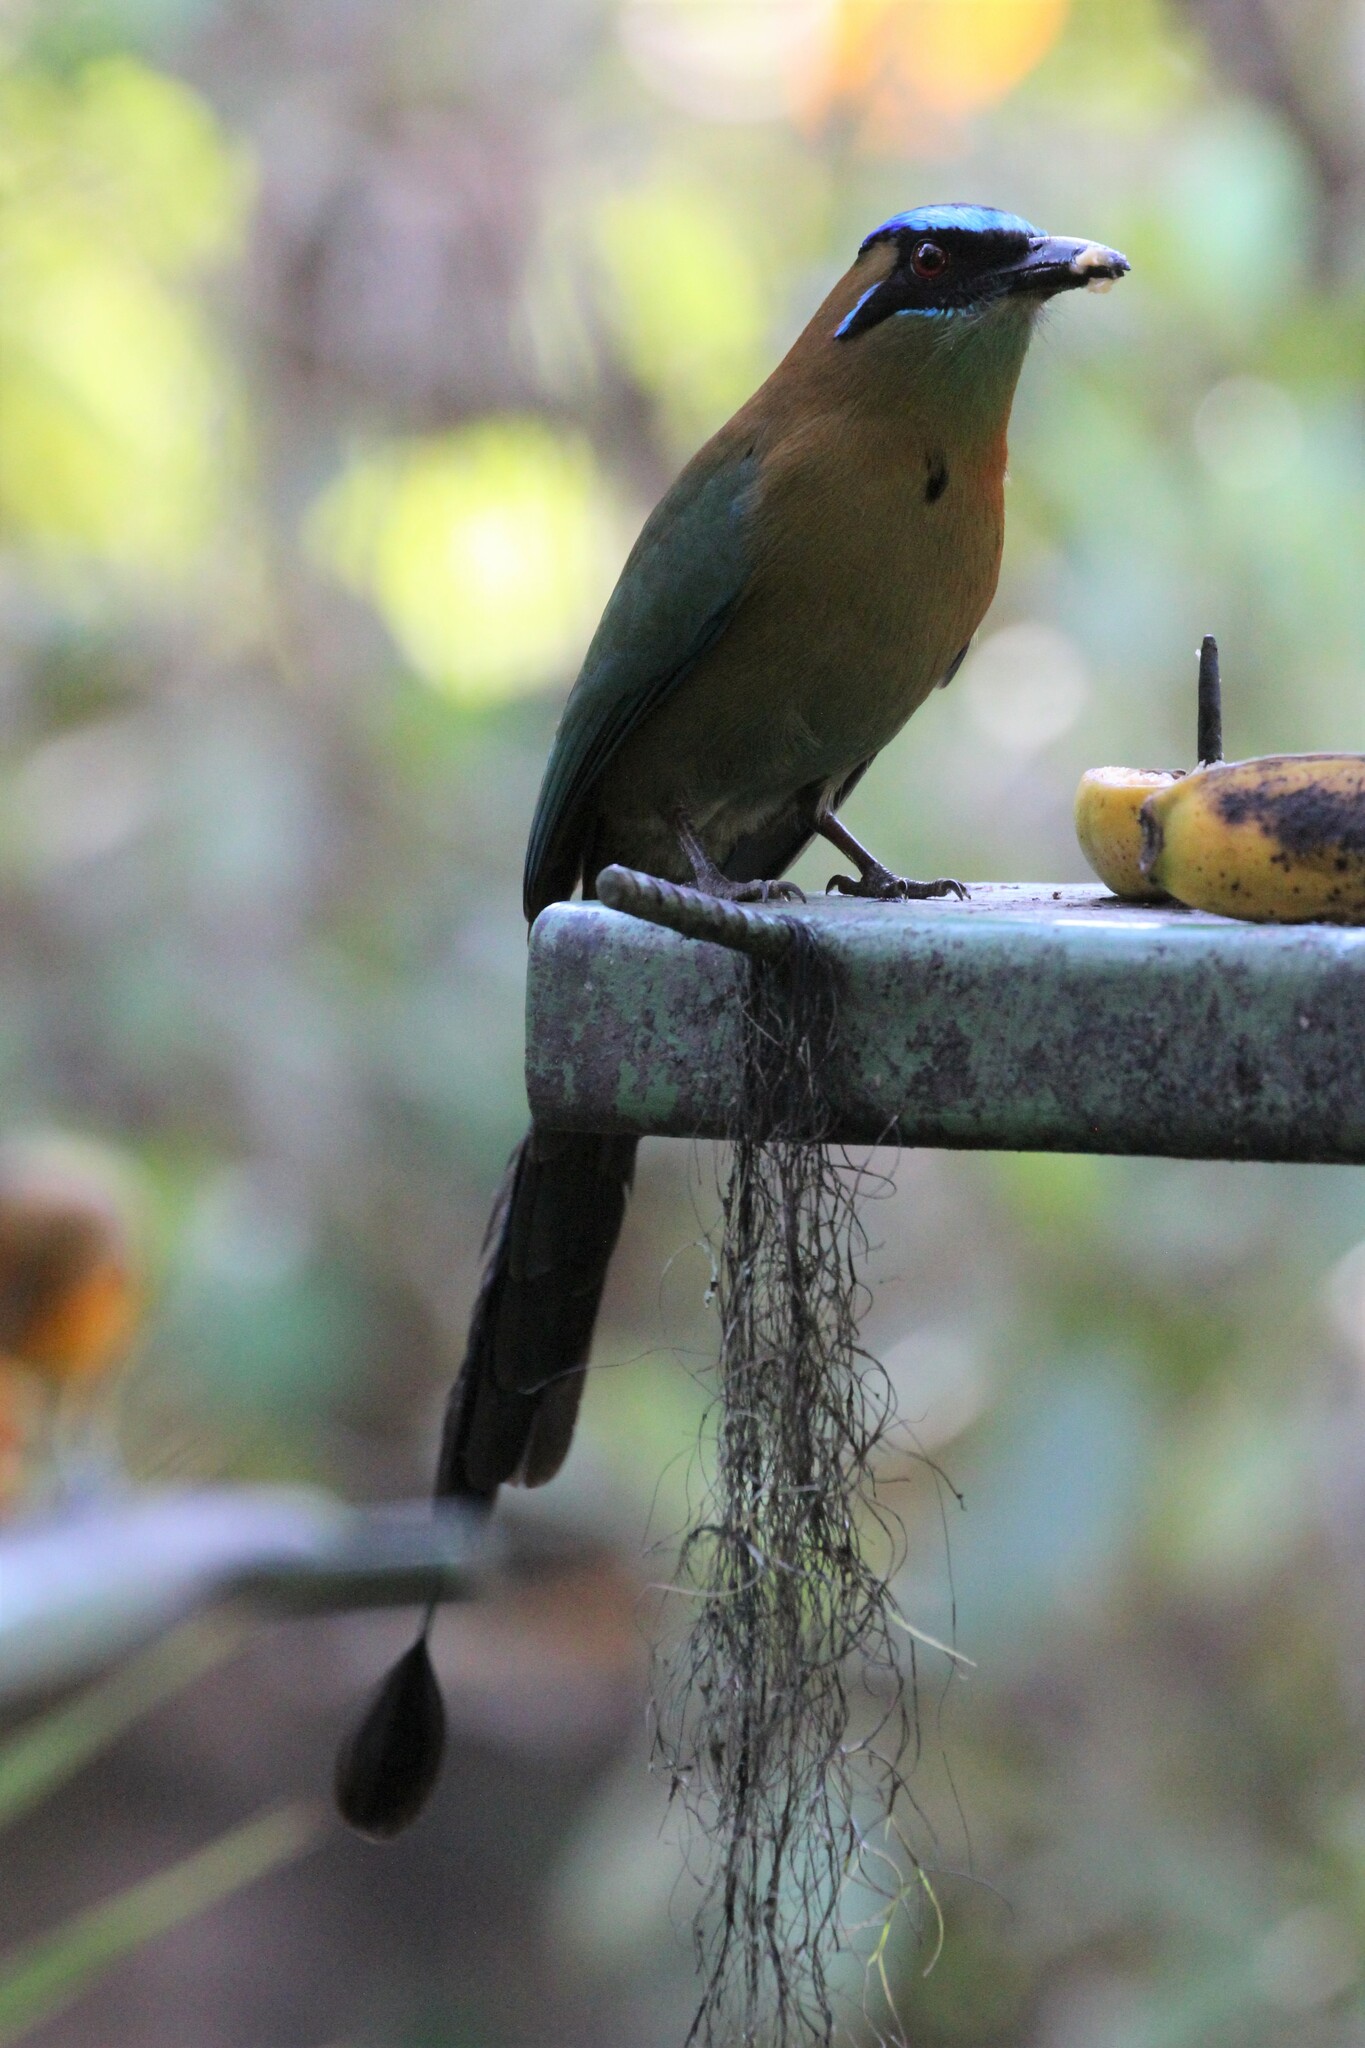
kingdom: Animalia
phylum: Chordata
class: Aves
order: Coraciiformes
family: Momotidae
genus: Momotus
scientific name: Momotus lessonii
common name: Lesson's motmot
